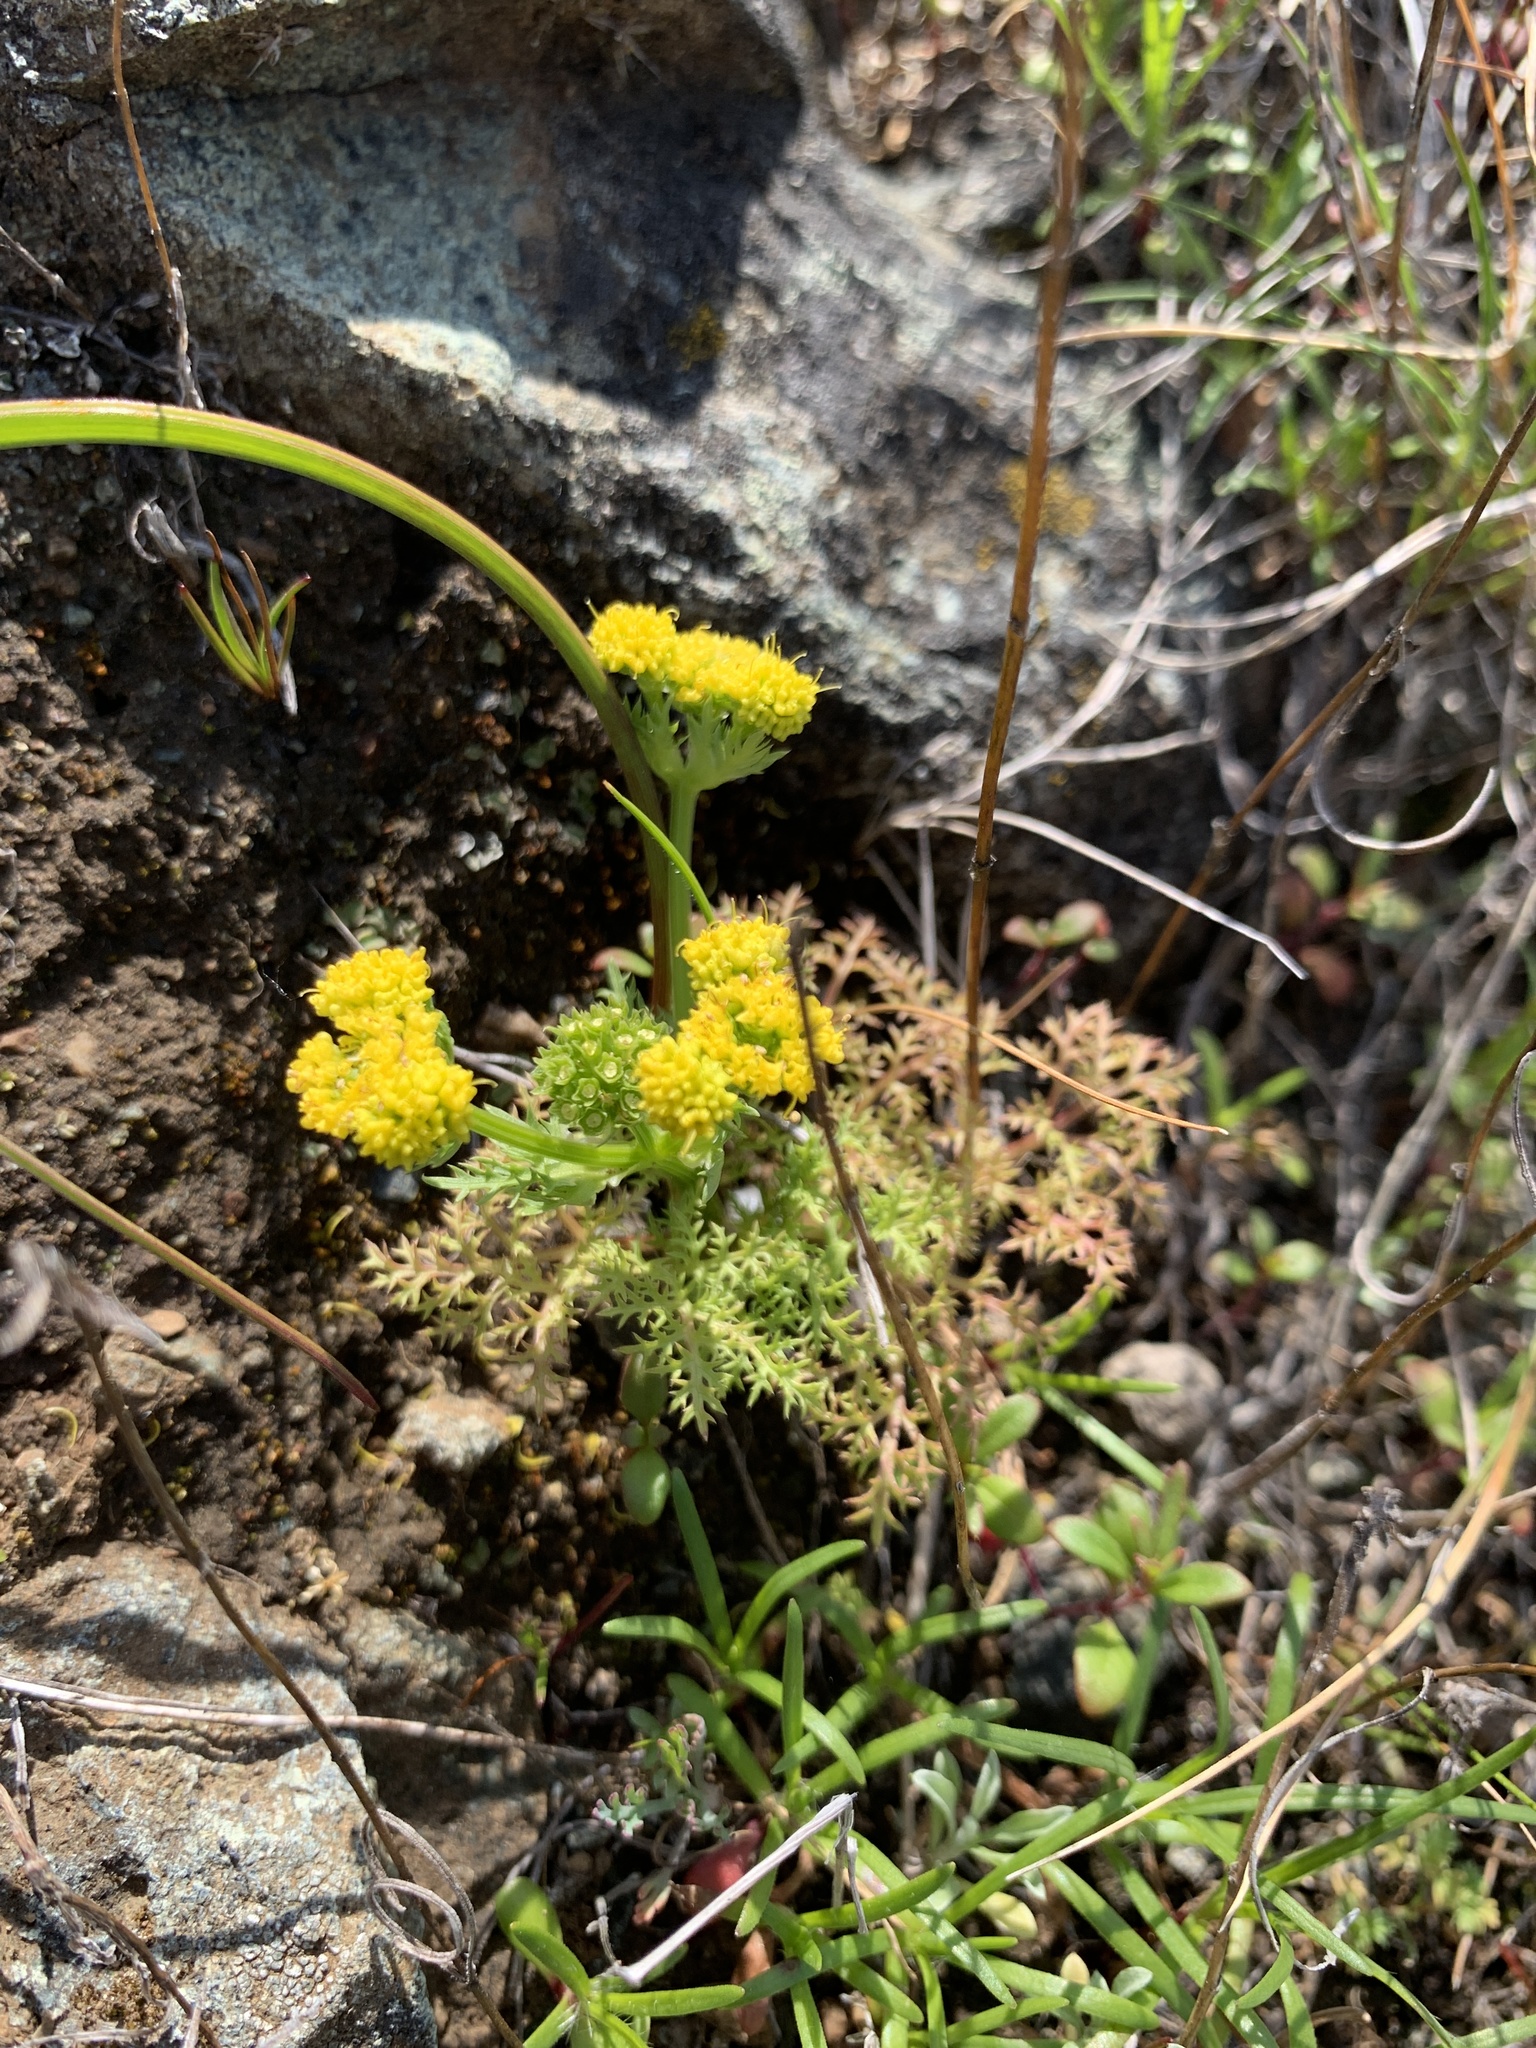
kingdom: Plantae
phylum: Tracheophyta
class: Magnoliopsida
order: Apiales
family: Apiaceae
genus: Sanicula
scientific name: Sanicula tuberosa
